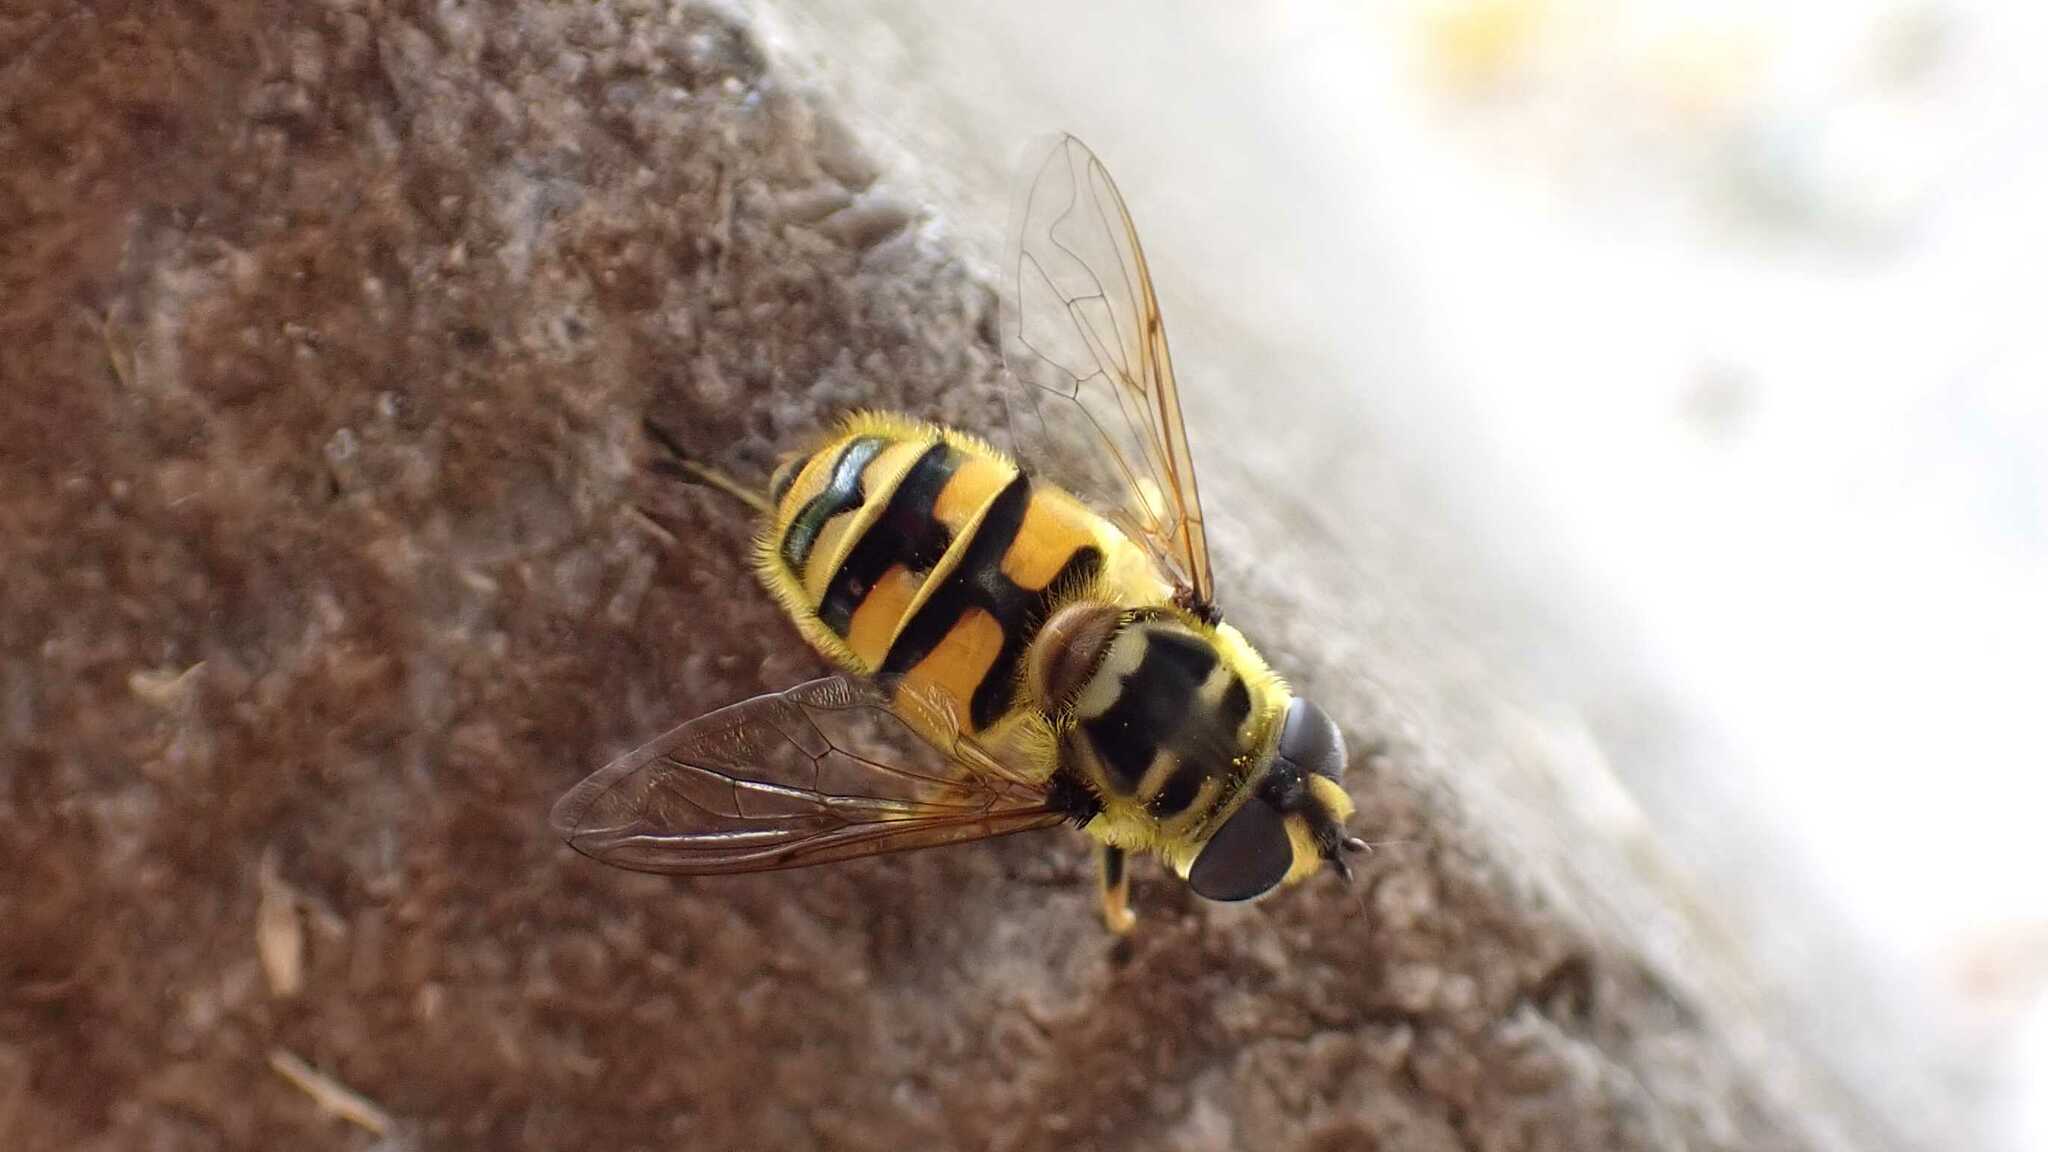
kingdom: Animalia
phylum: Arthropoda
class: Insecta
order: Diptera
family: Syrphidae
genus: Myathropa
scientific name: Myathropa florea
